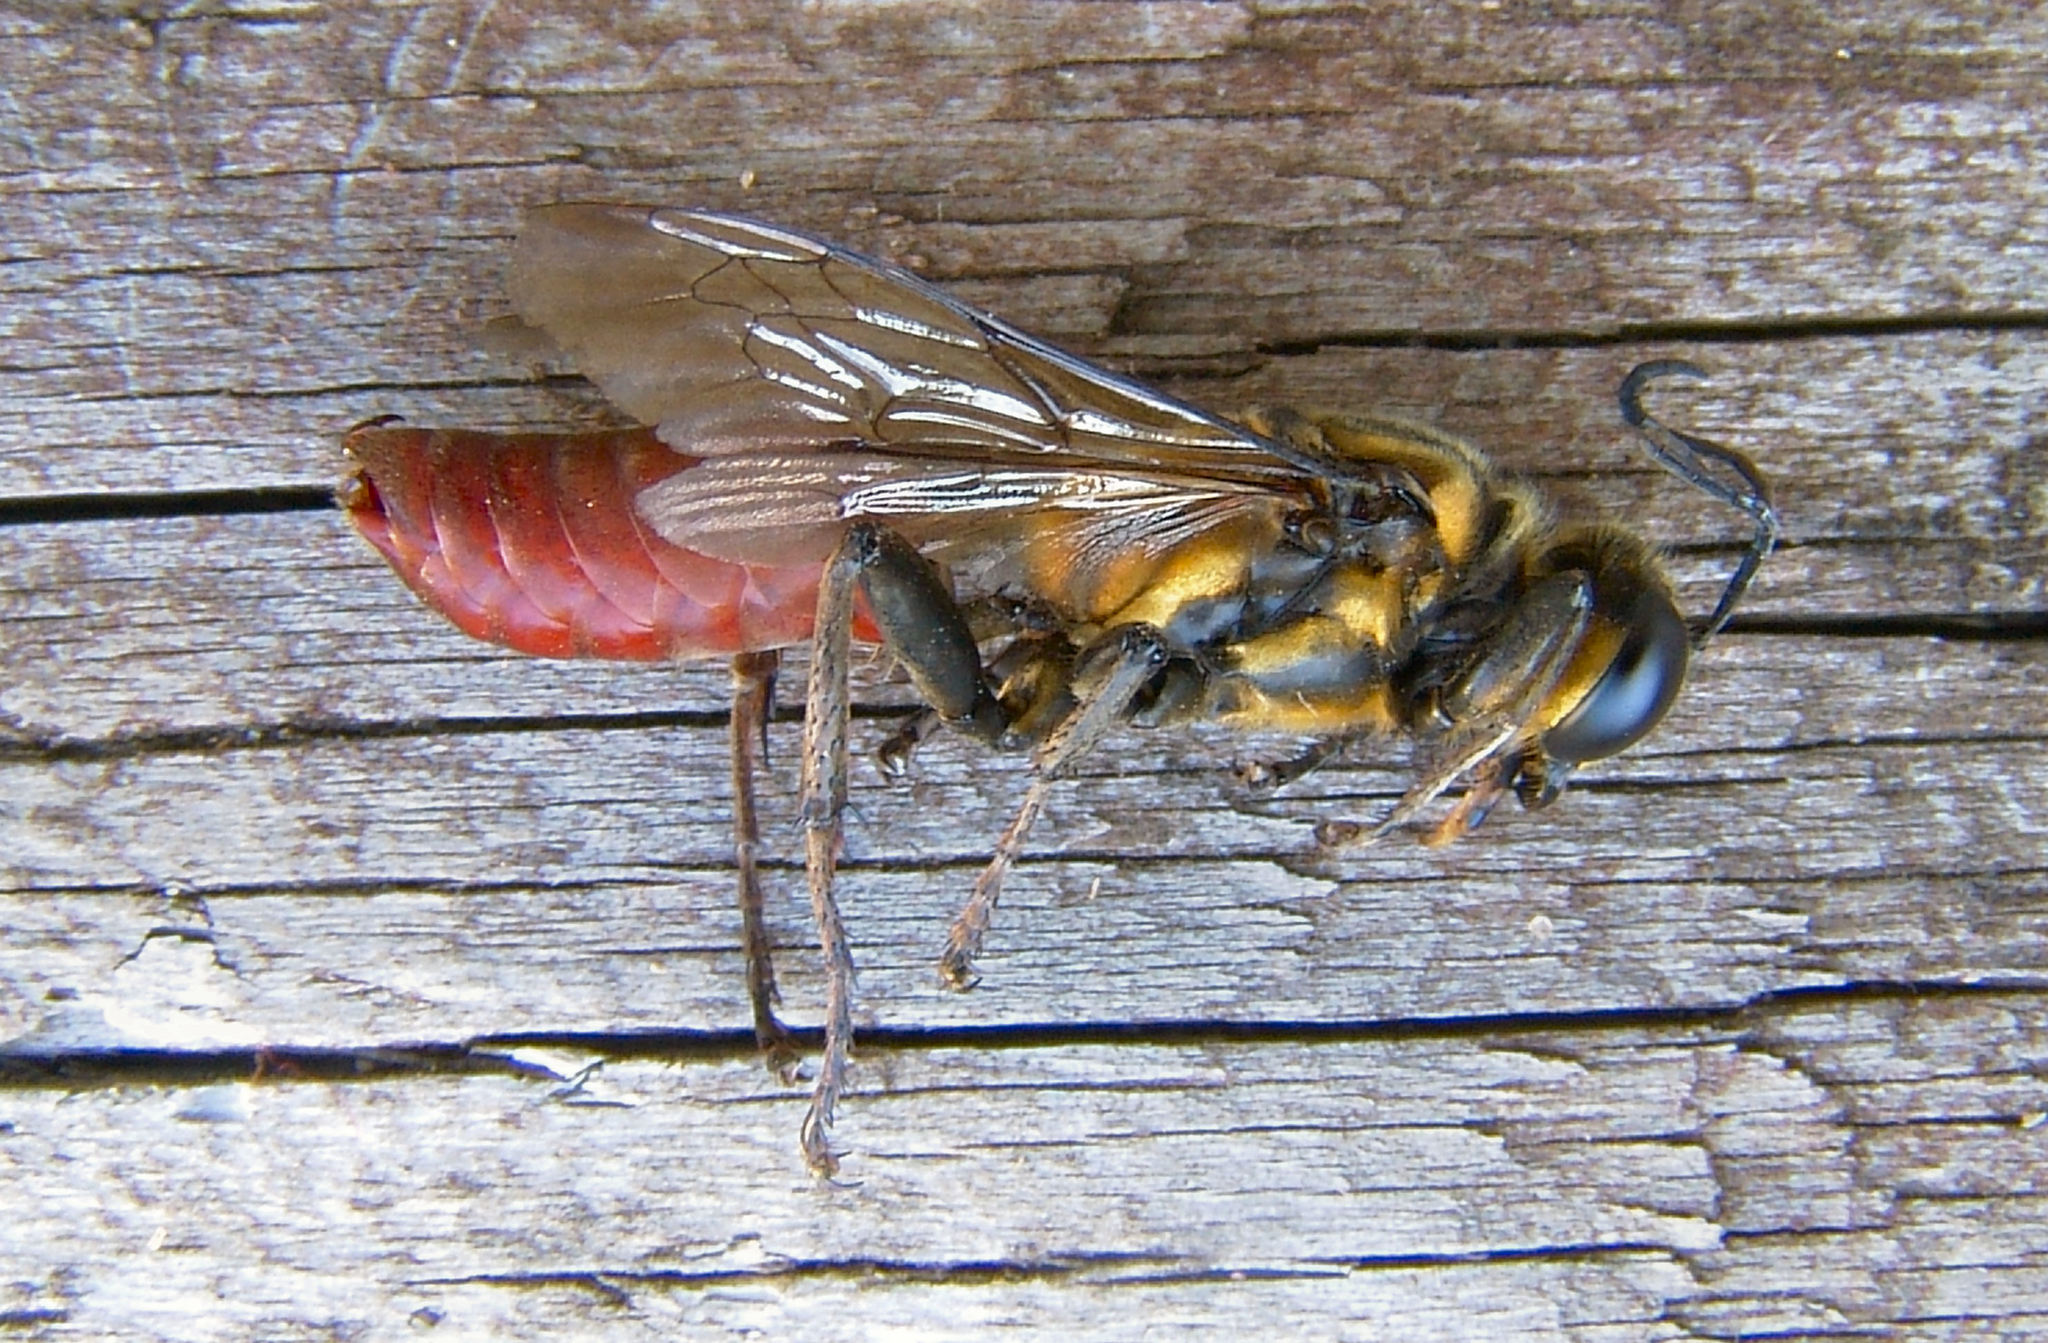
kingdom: Animalia
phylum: Arthropoda
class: Insecta
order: Hymenoptera
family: Sphecidae
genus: Sphex
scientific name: Sphex habenus
